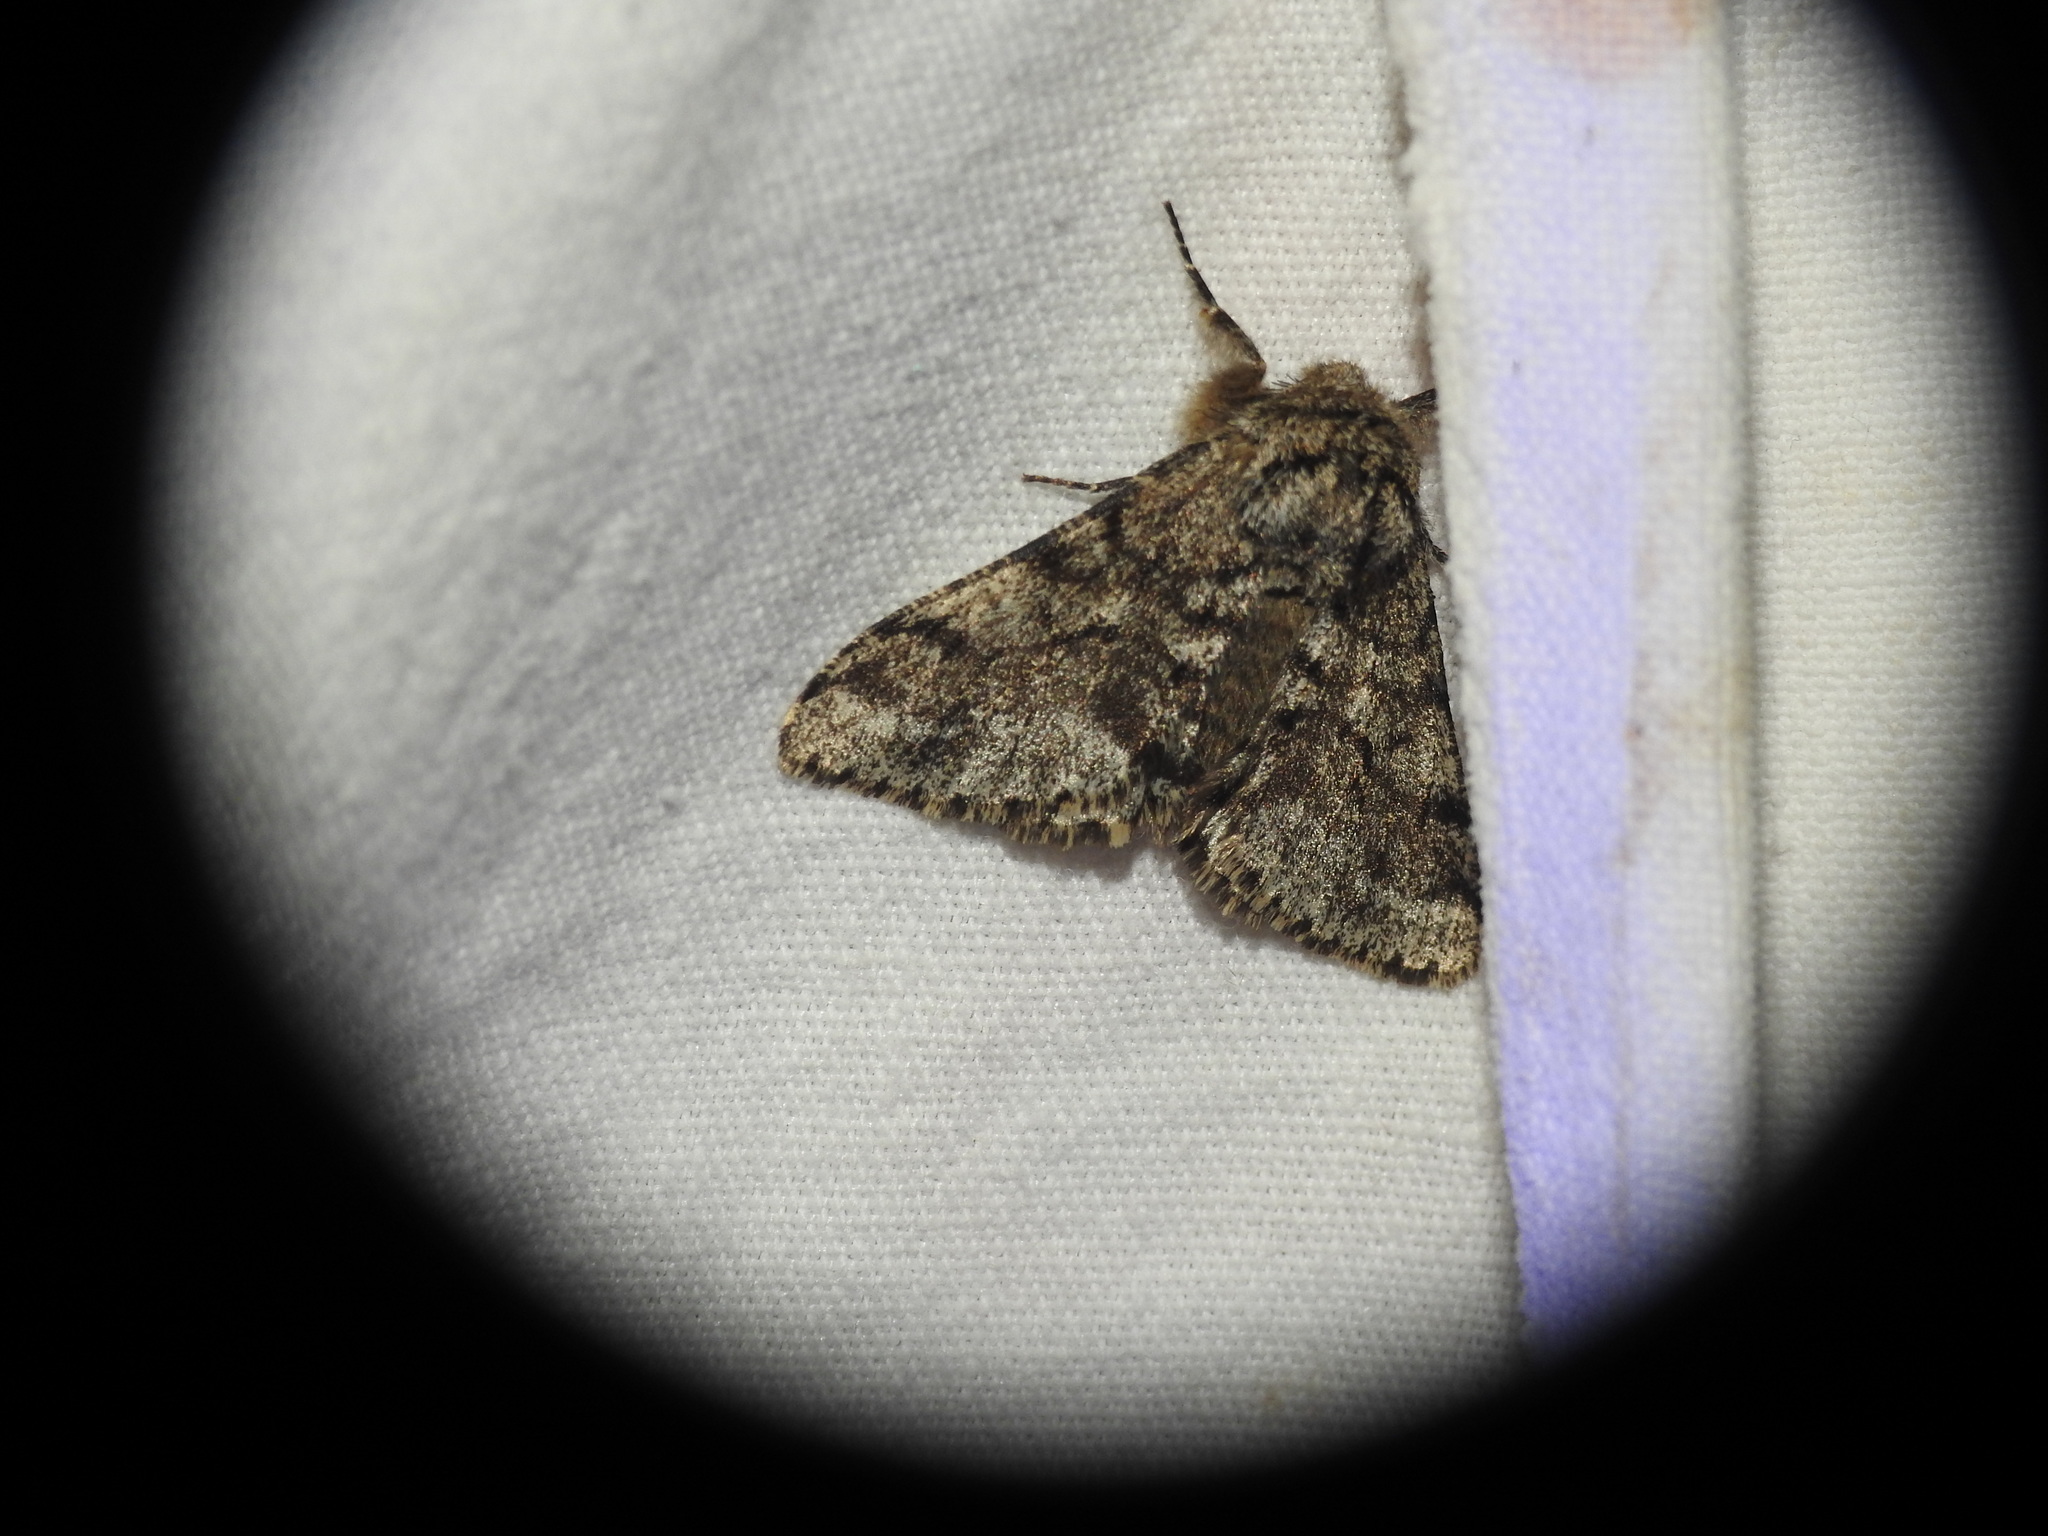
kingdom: Animalia
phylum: Arthropoda
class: Insecta
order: Lepidoptera
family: Geometridae
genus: Lycia
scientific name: Lycia hirtaria
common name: Brindled beauty
